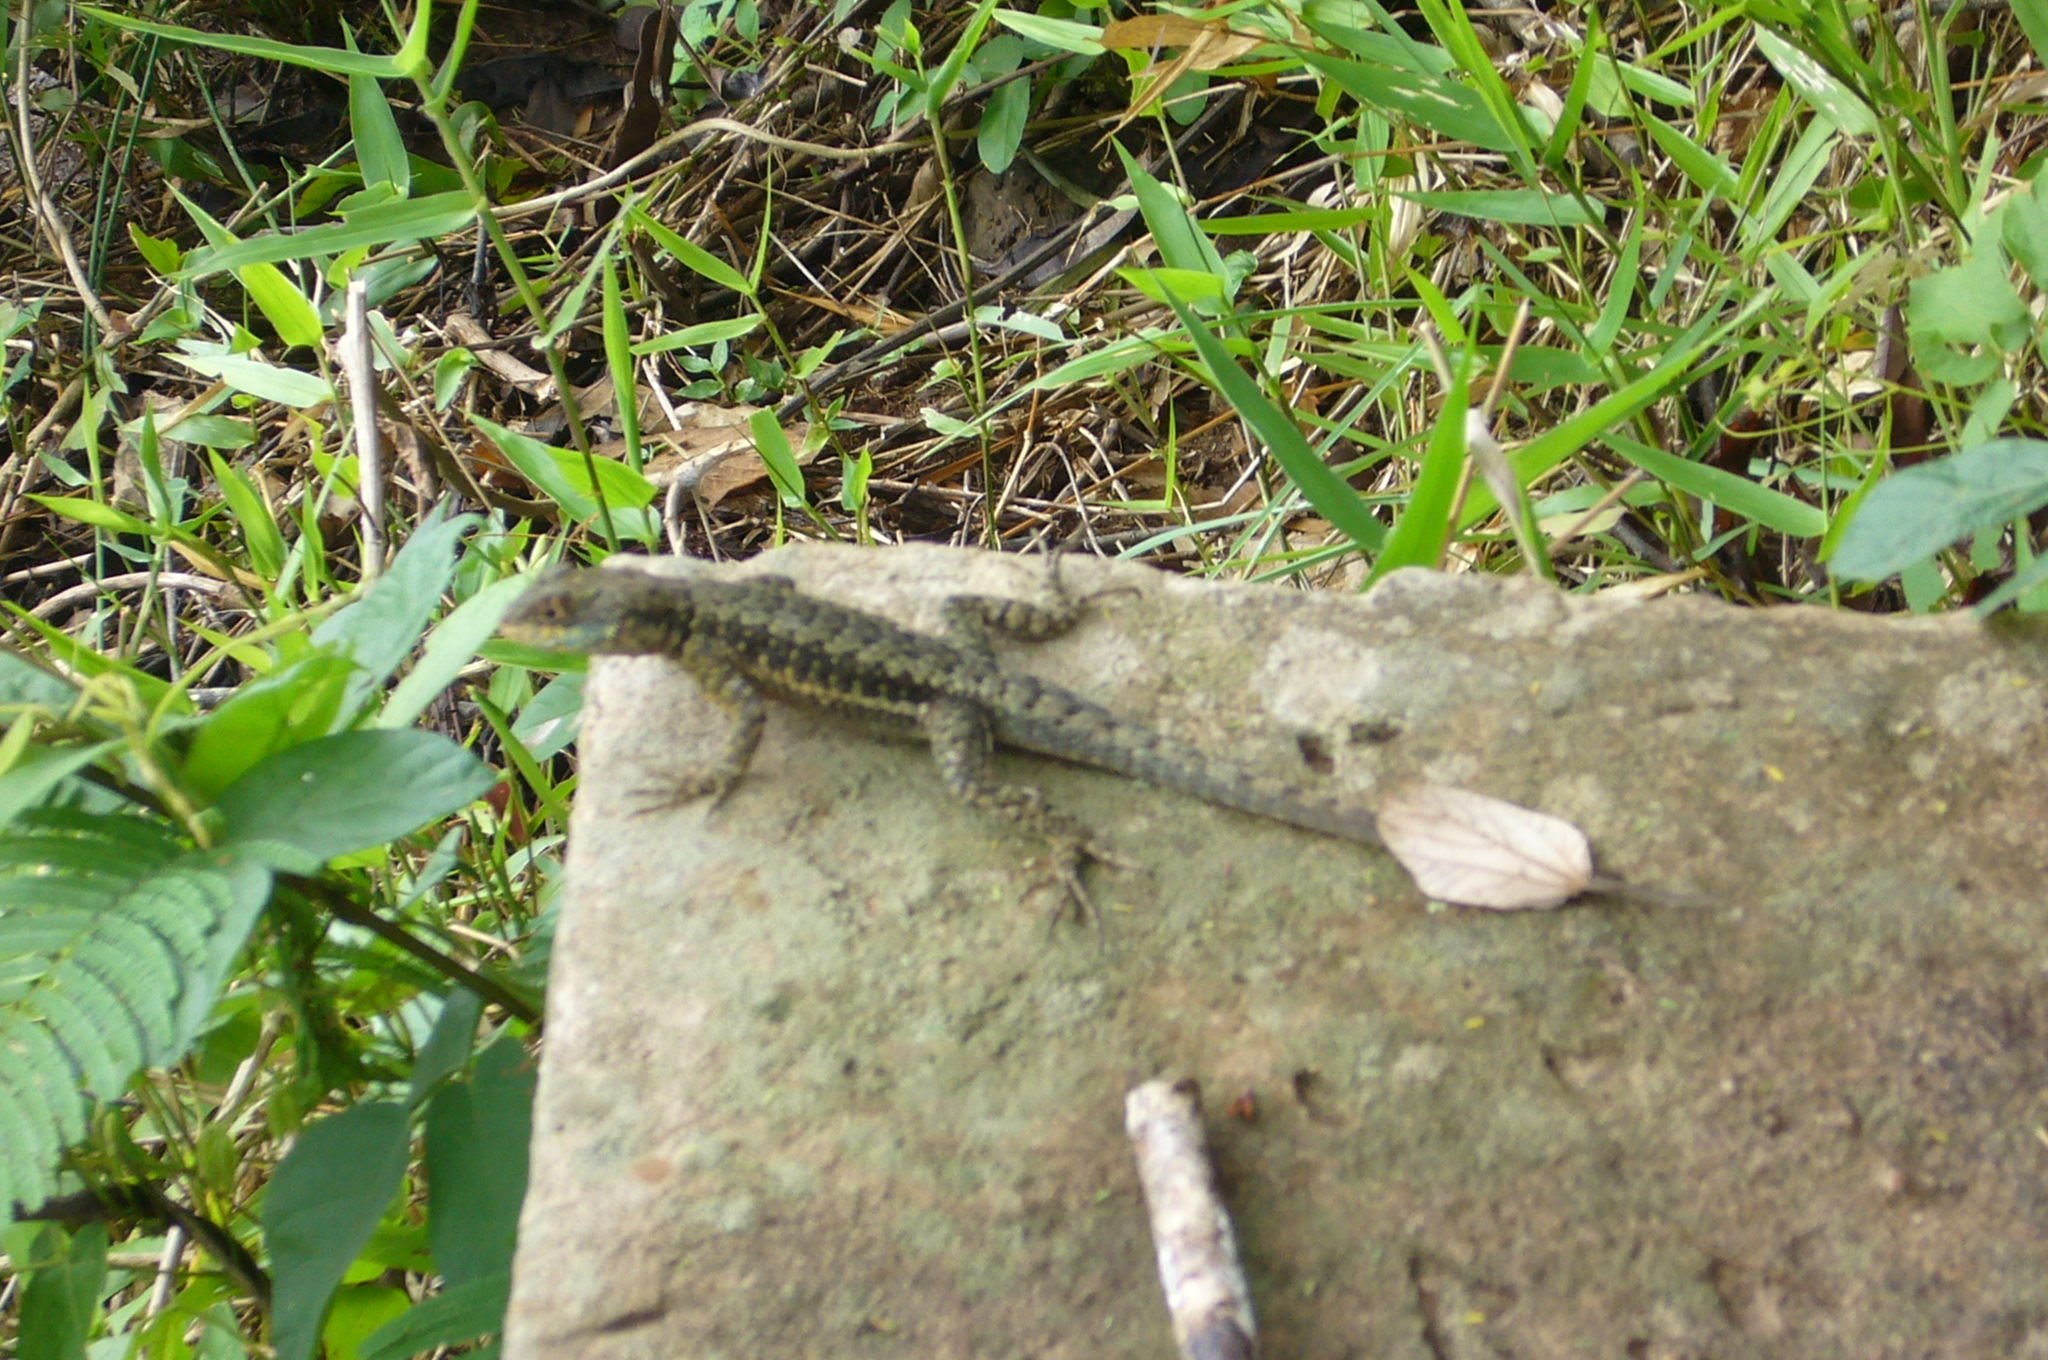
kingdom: Animalia
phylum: Chordata
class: Squamata
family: Tropiduridae
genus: Tropidurus
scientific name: Tropidurus catalanensis
